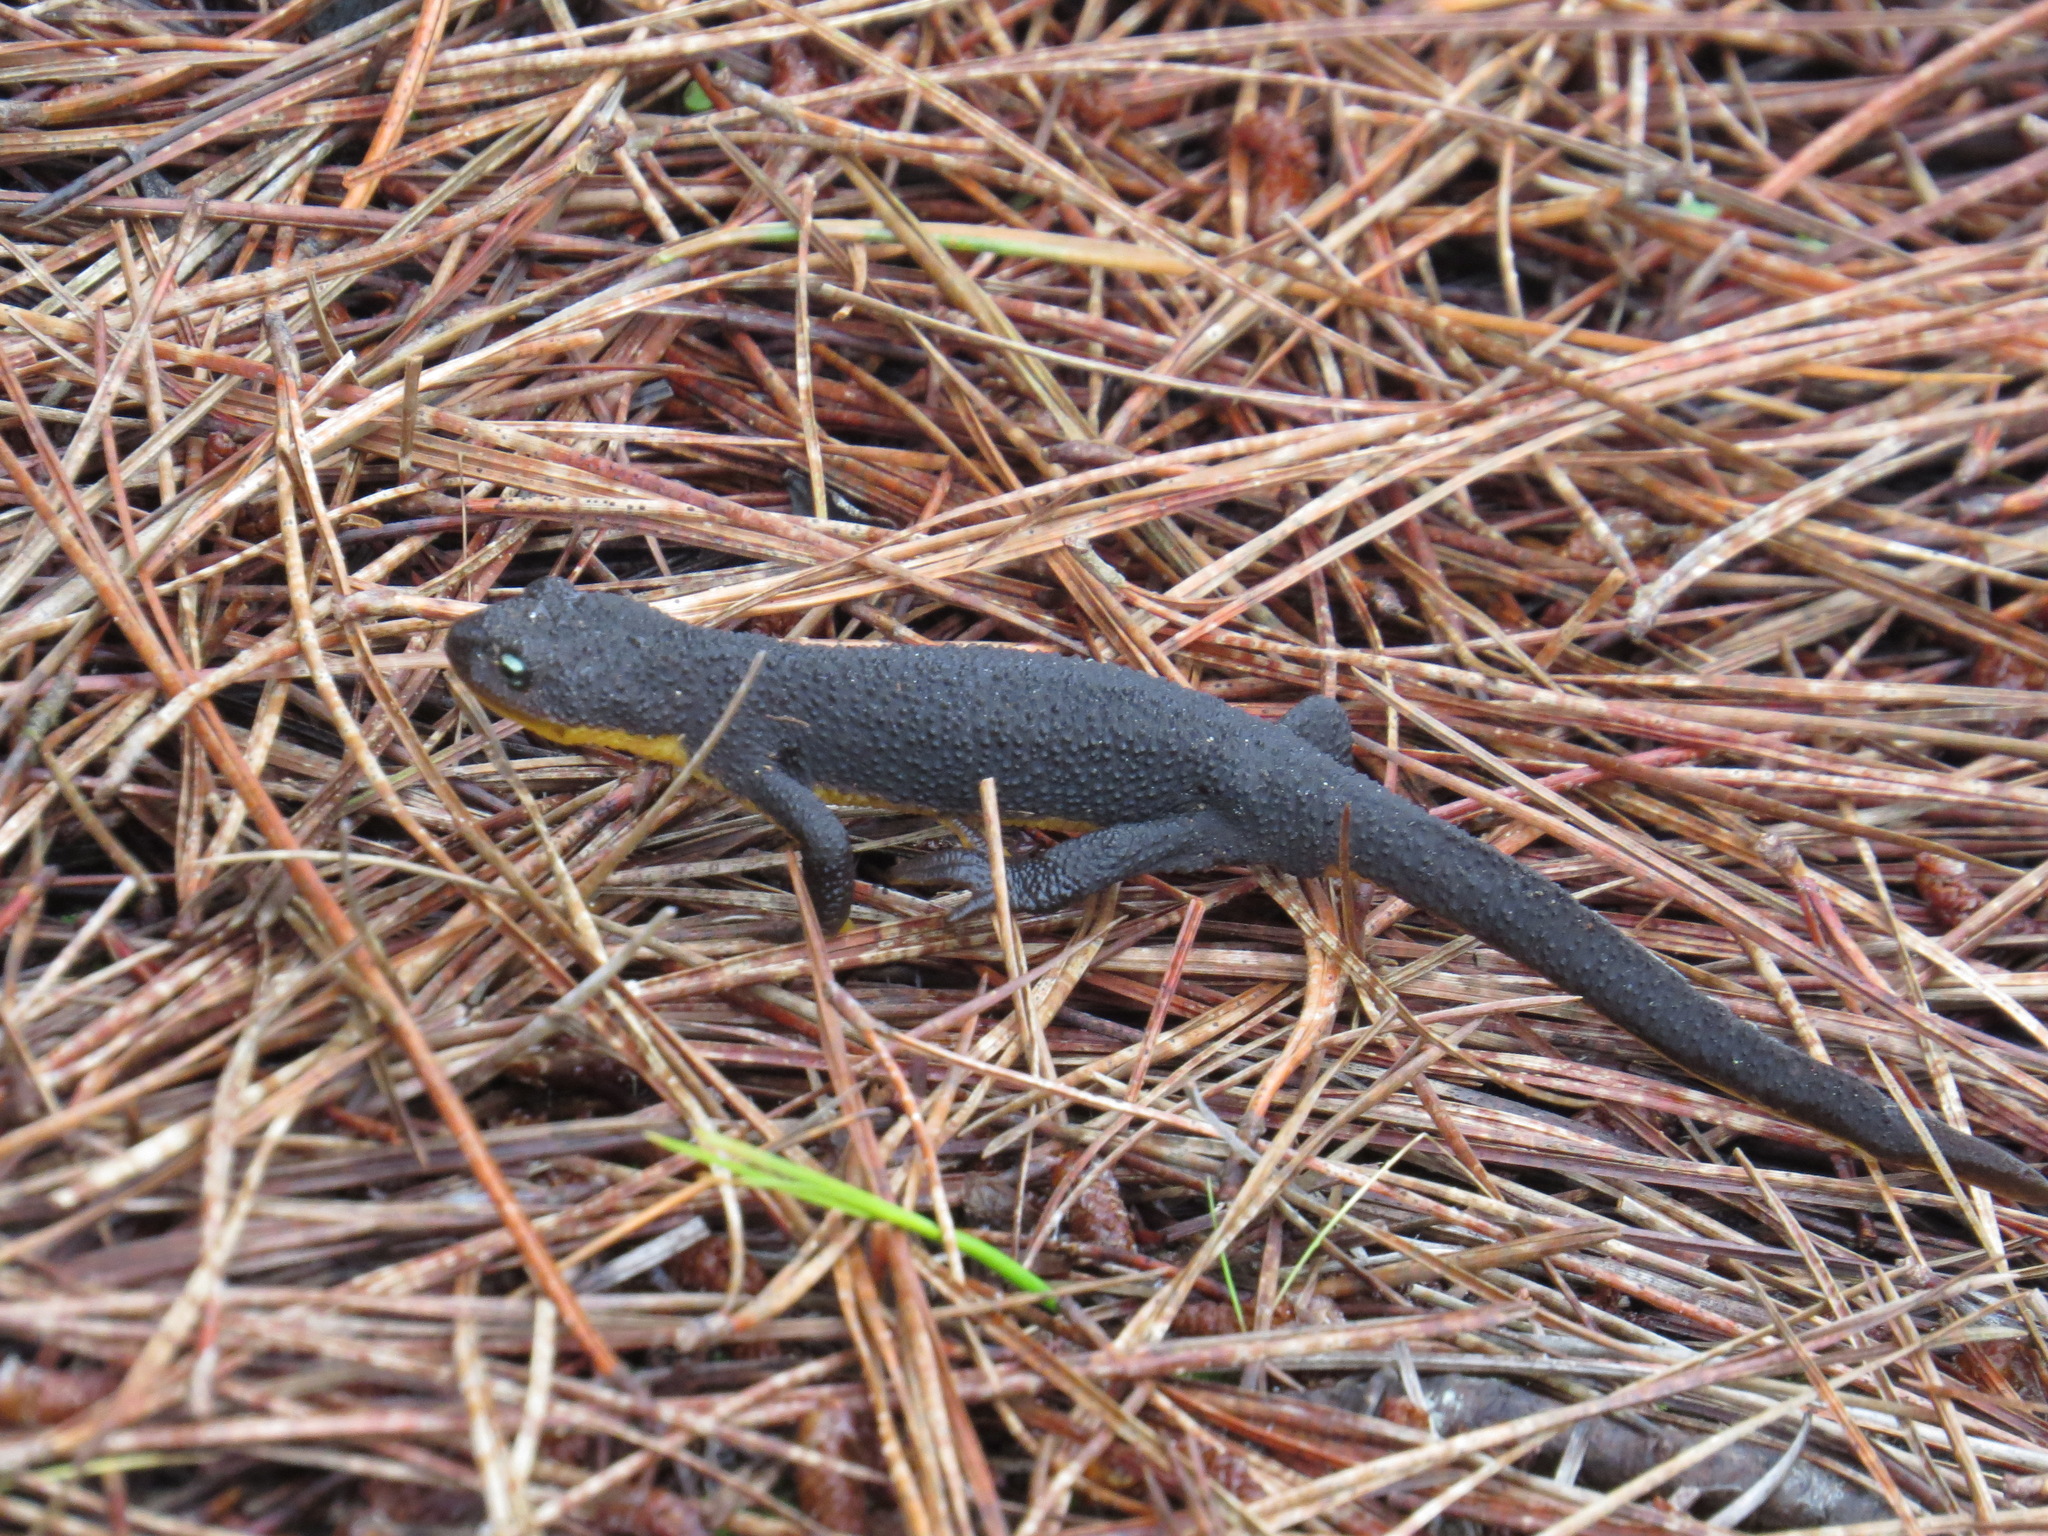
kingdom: Animalia
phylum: Chordata
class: Amphibia
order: Caudata
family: Salamandridae
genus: Taricha
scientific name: Taricha granulosa
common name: Roughskin newt
